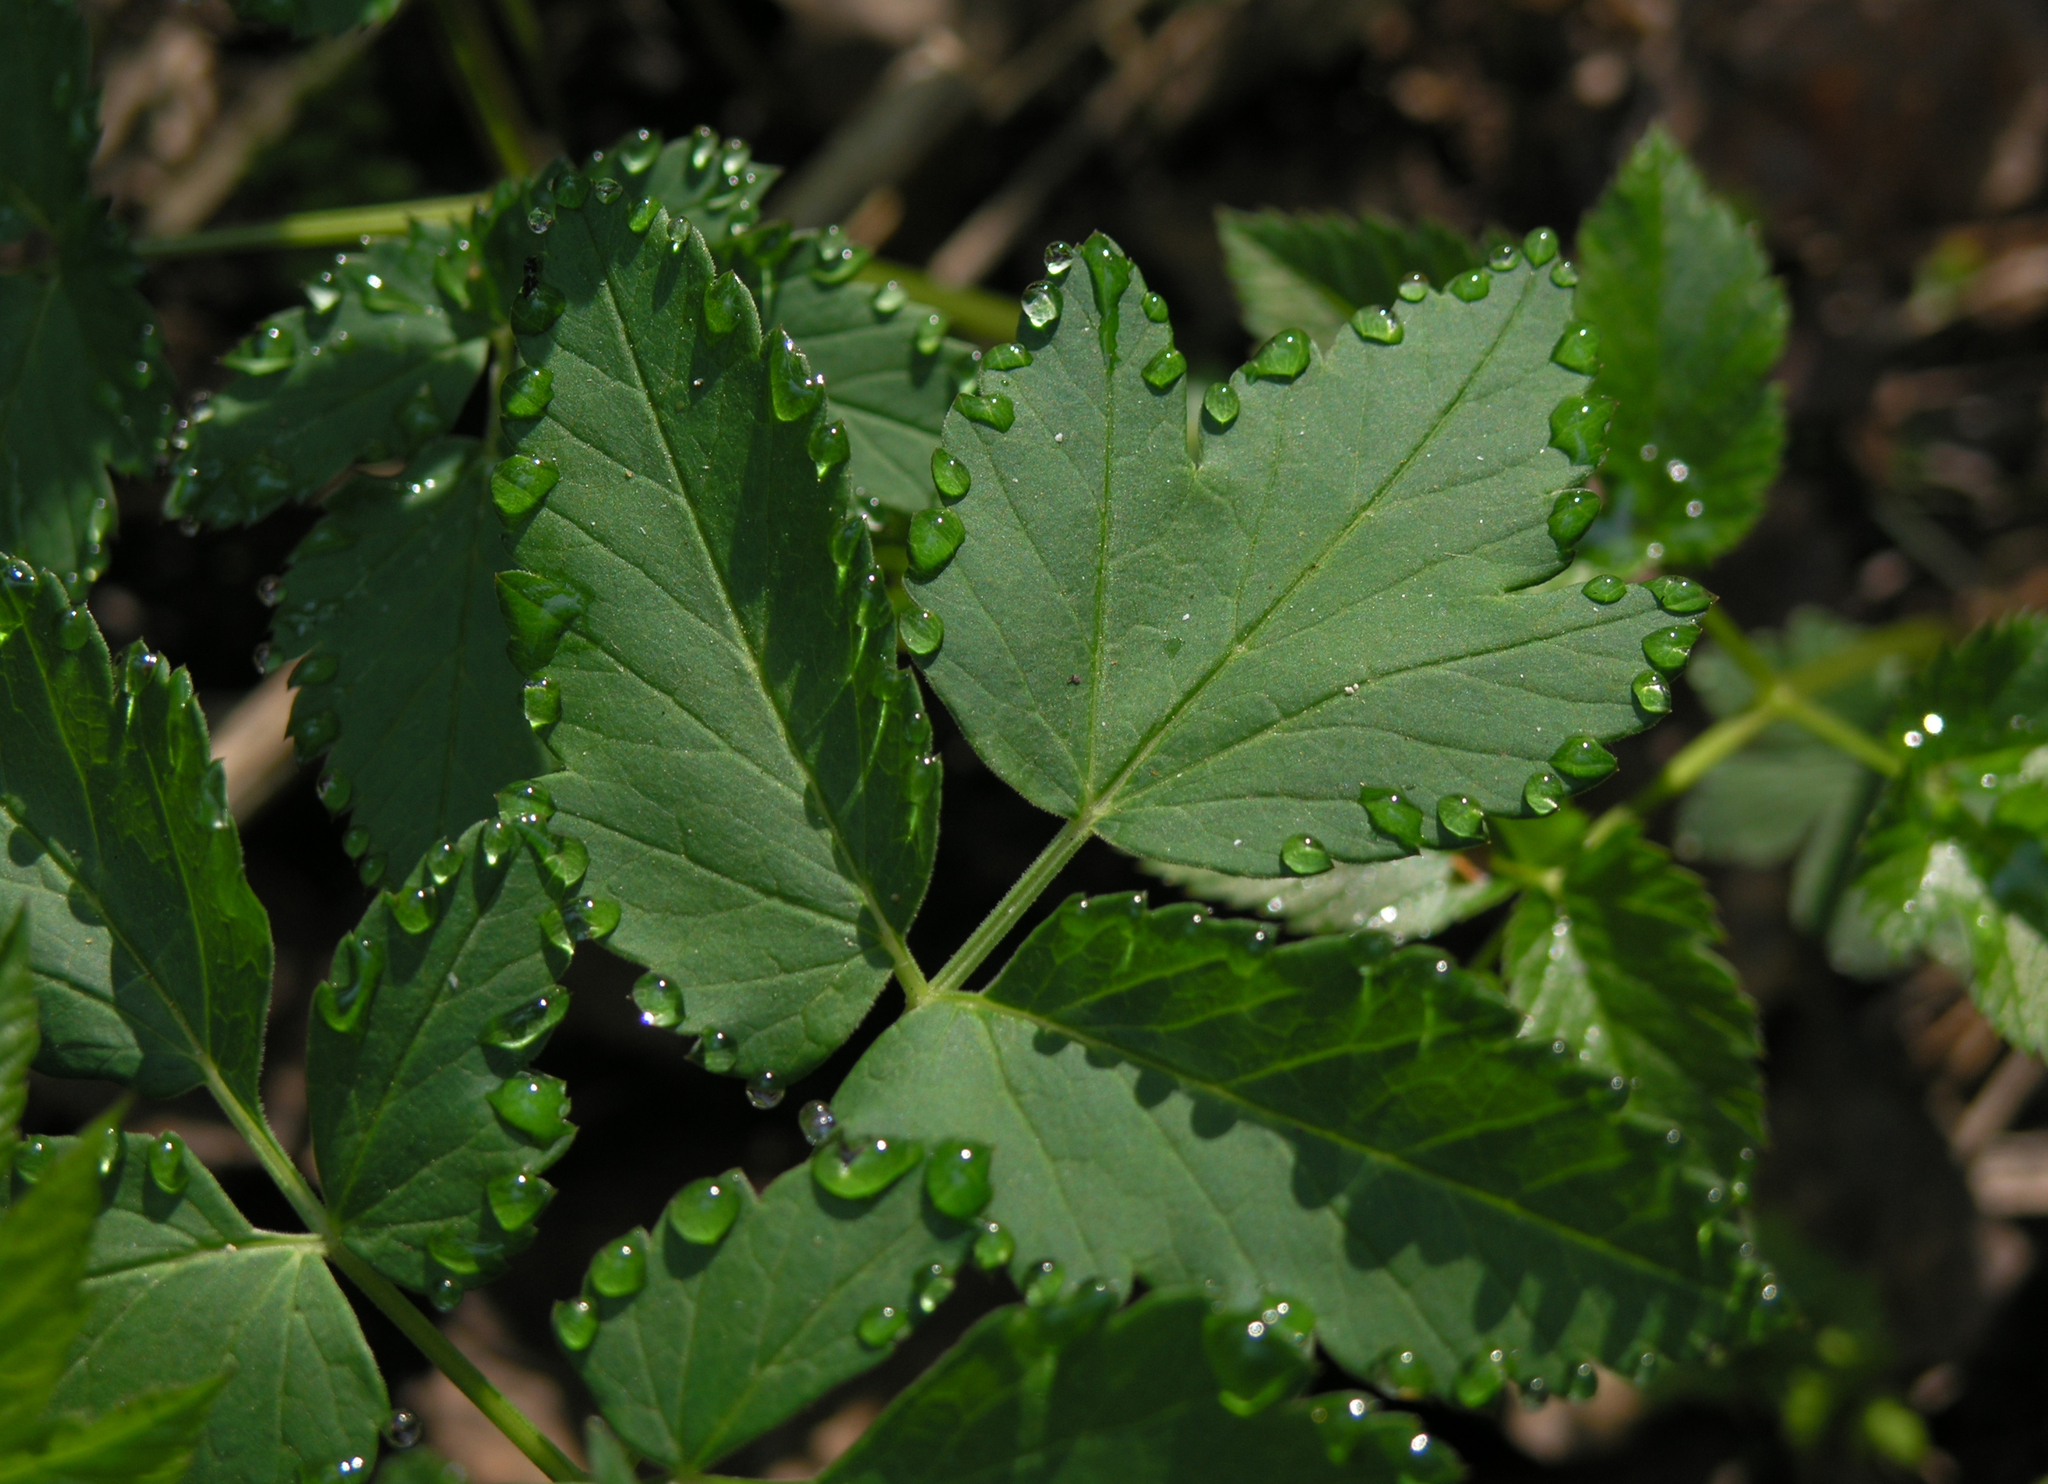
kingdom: Plantae
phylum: Tracheophyta
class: Magnoliopsida
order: Apiales
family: Apiaceae
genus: Aegopodium
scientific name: Aegopodium podagraria
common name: Ground-elder
